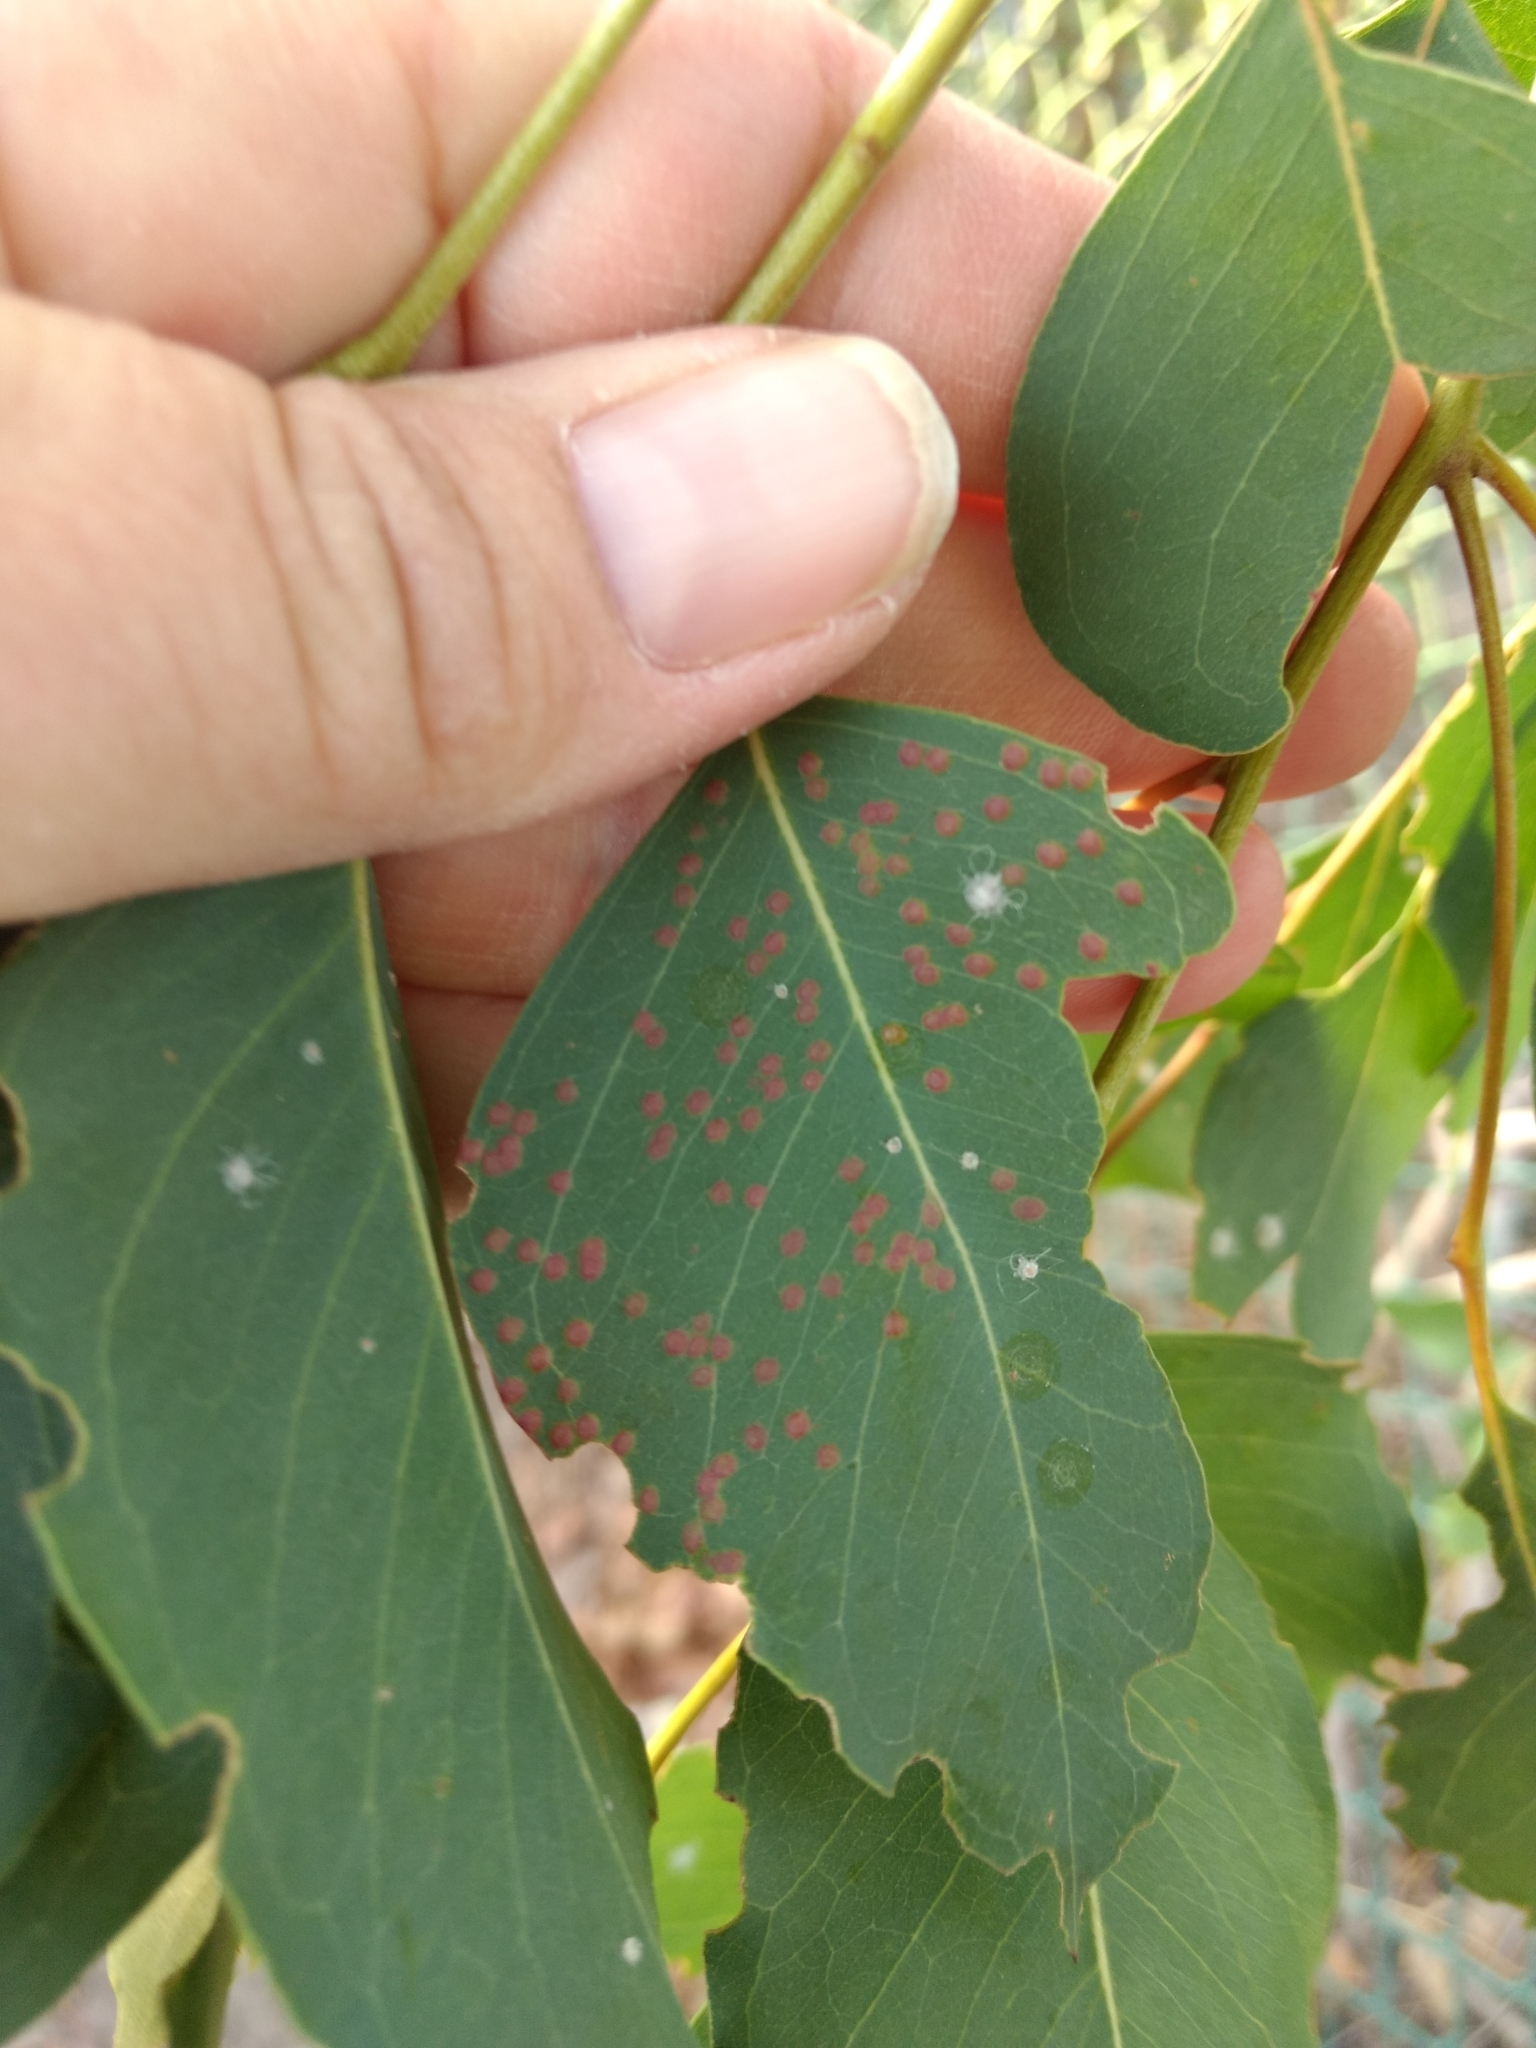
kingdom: Animalia
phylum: Arthropoda
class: Insecta
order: Hymenoptera
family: Eulophidae
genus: Ophelimus
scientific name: Ophelimus maskelli
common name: Gall wasp
